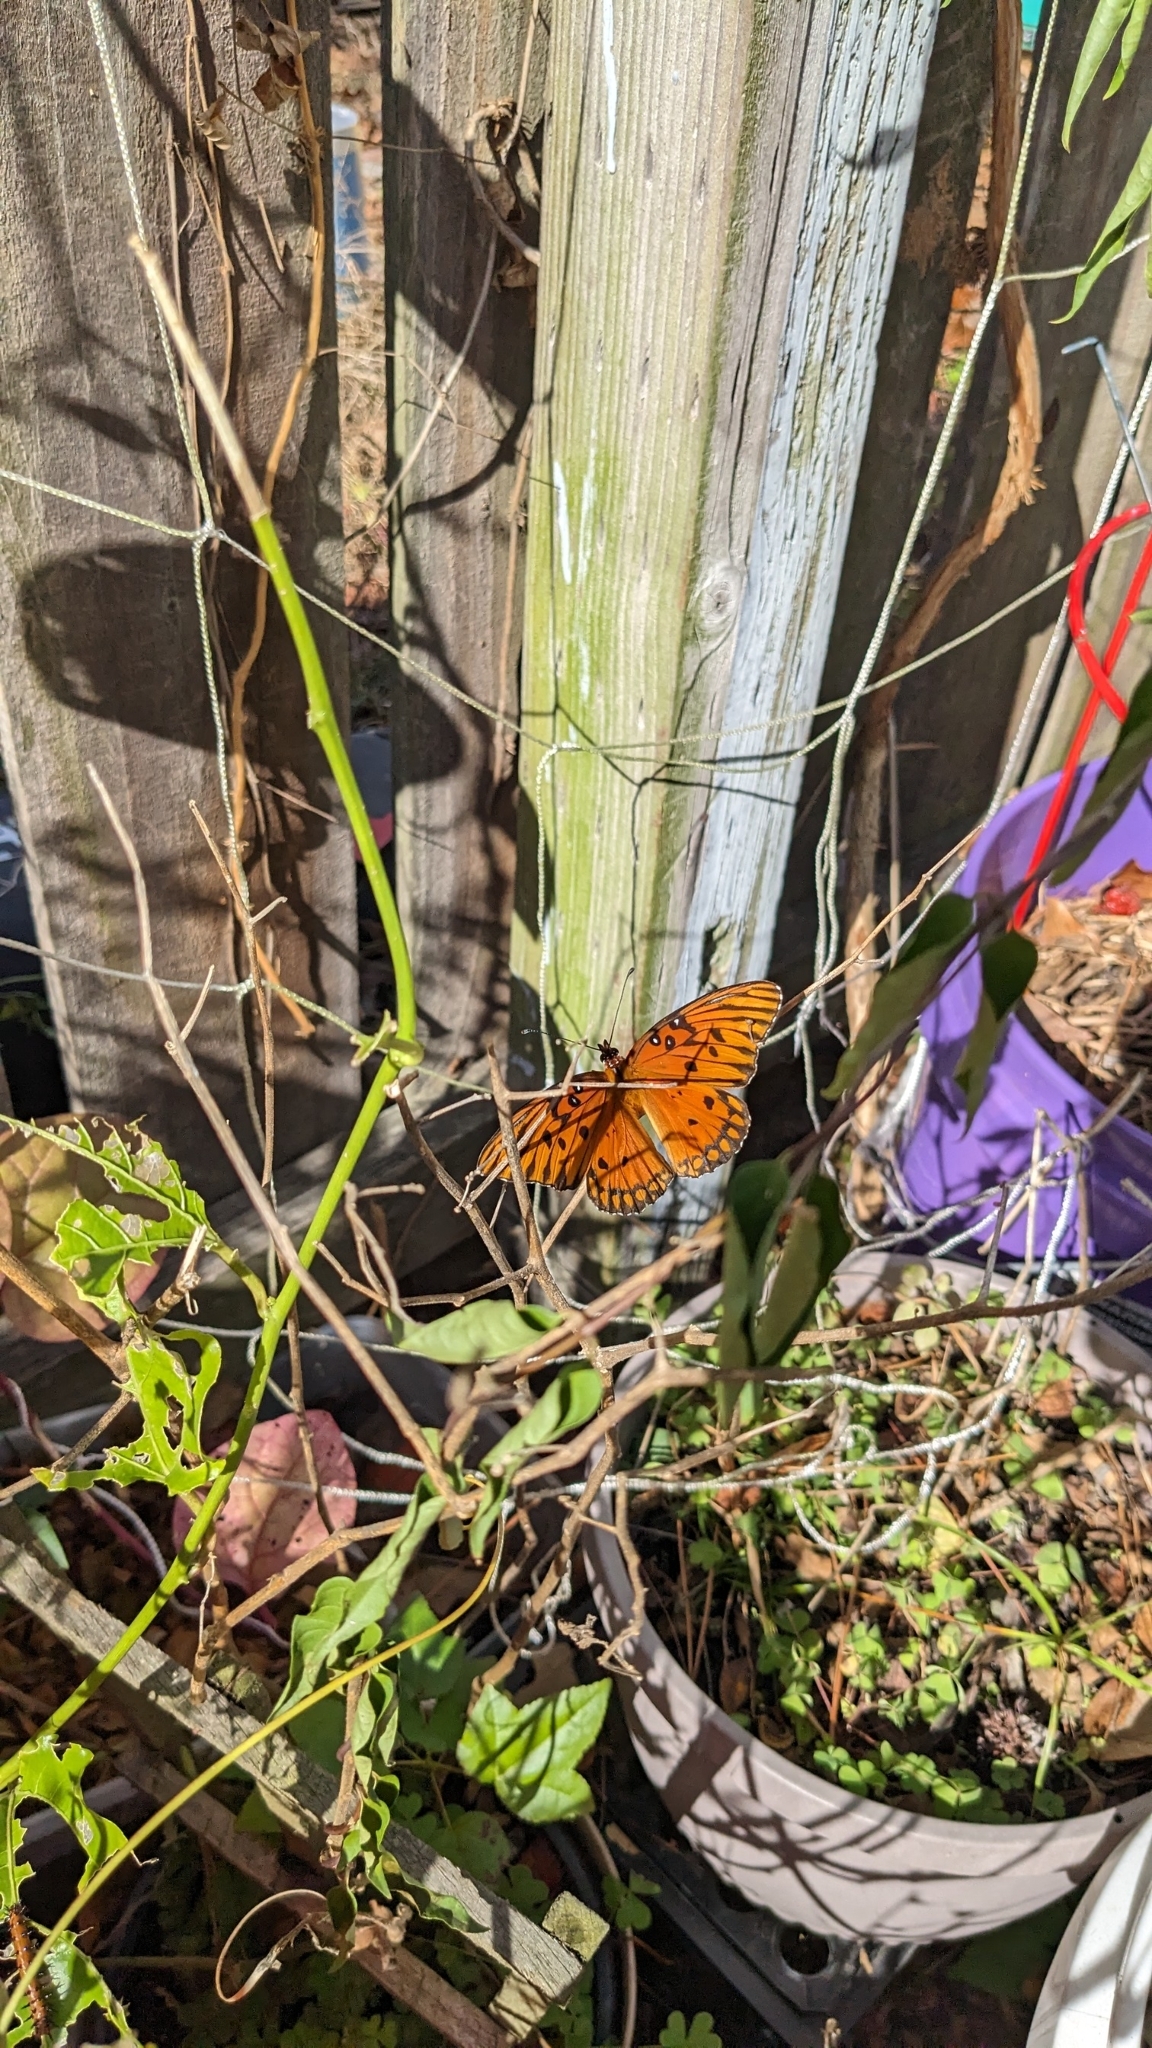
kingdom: Animalia
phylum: Arthropoda
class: Insecta
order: Lepidoptera
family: Nymphalidae
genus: Dione
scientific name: Dione vanillae
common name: Gulf fritillary
